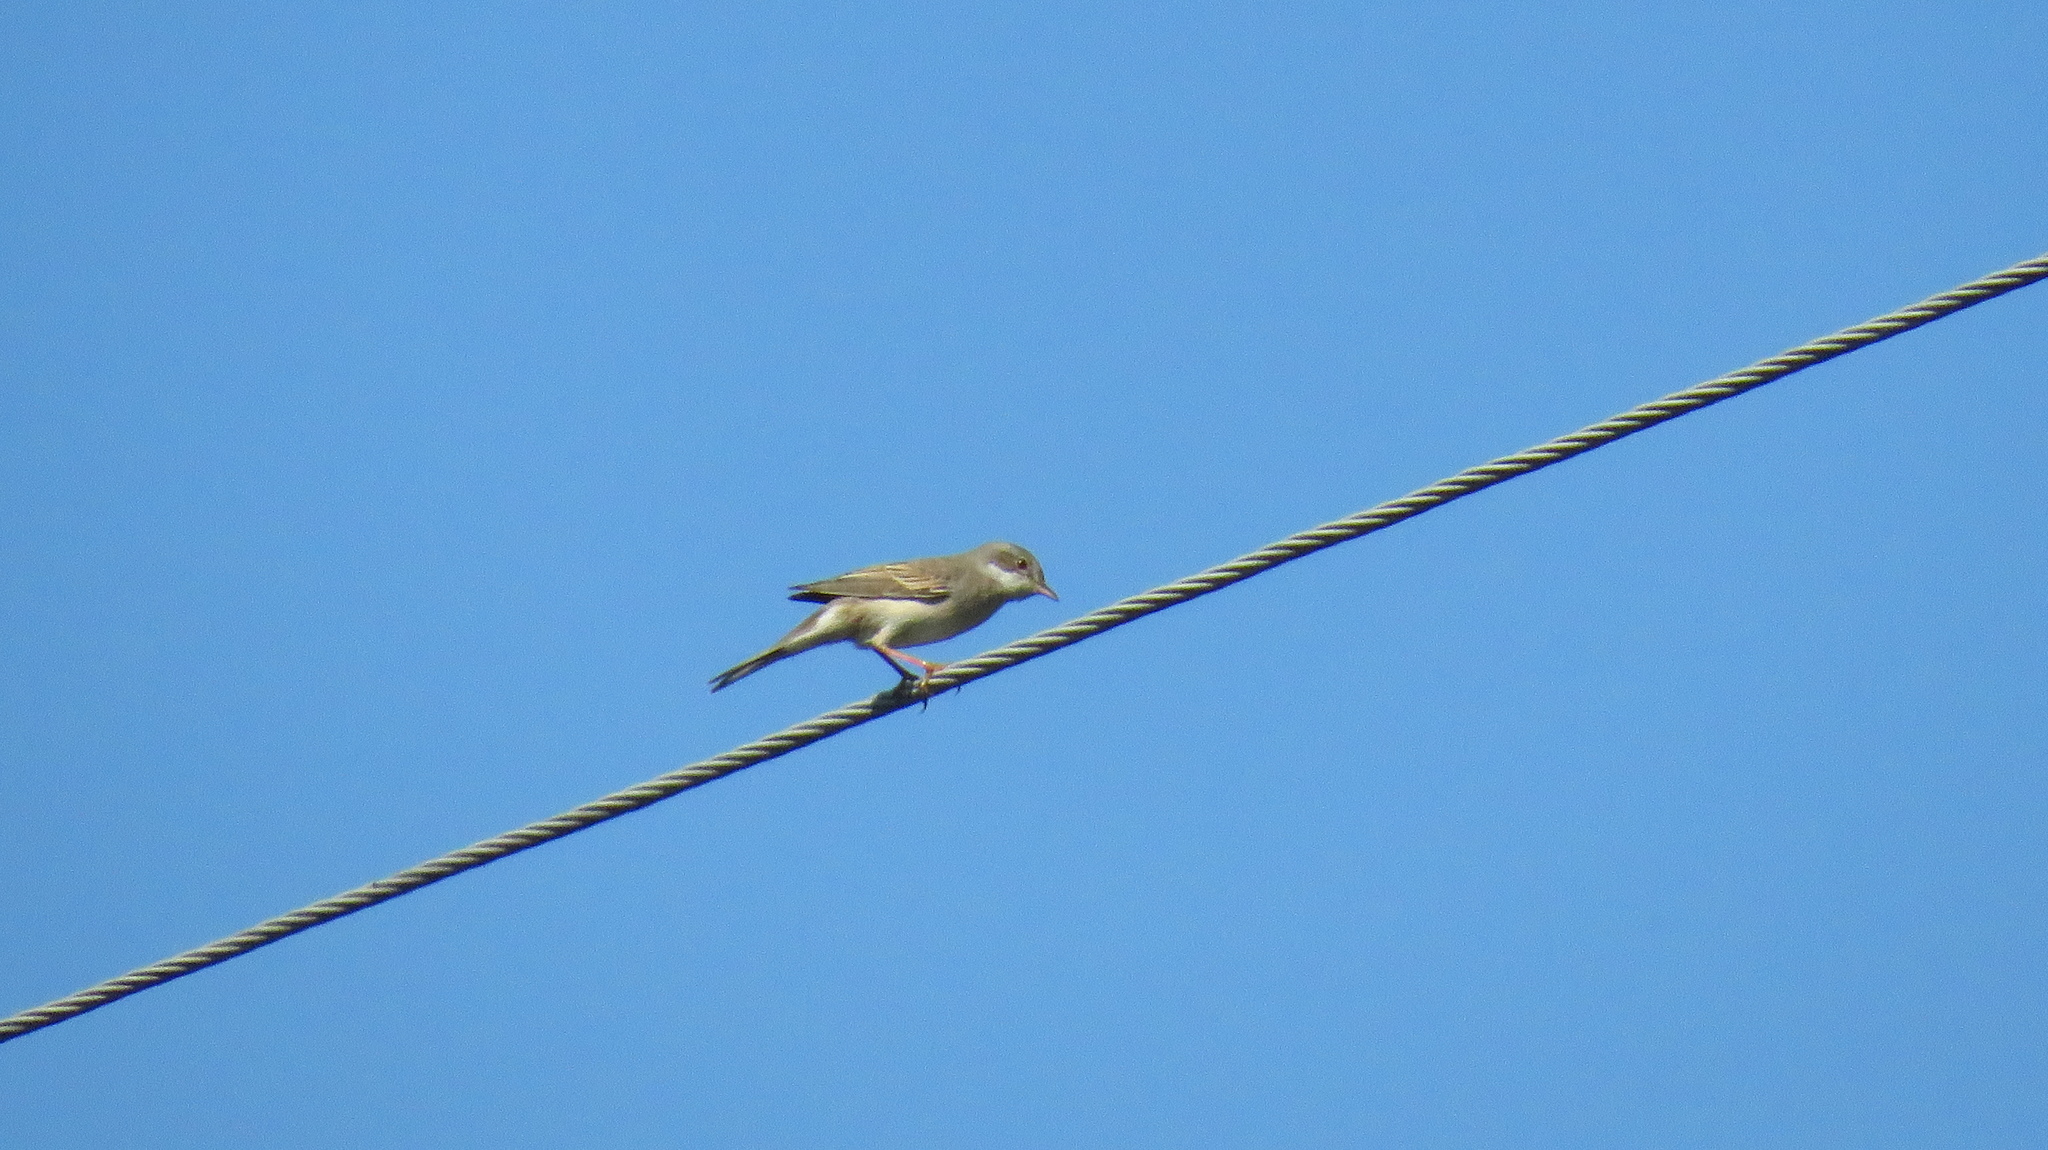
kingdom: Animalia
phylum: Chordata
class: Aves
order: Passeriformes
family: Sylviidae
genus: Sylvia
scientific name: Sylvia communis
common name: Common whitethroat
